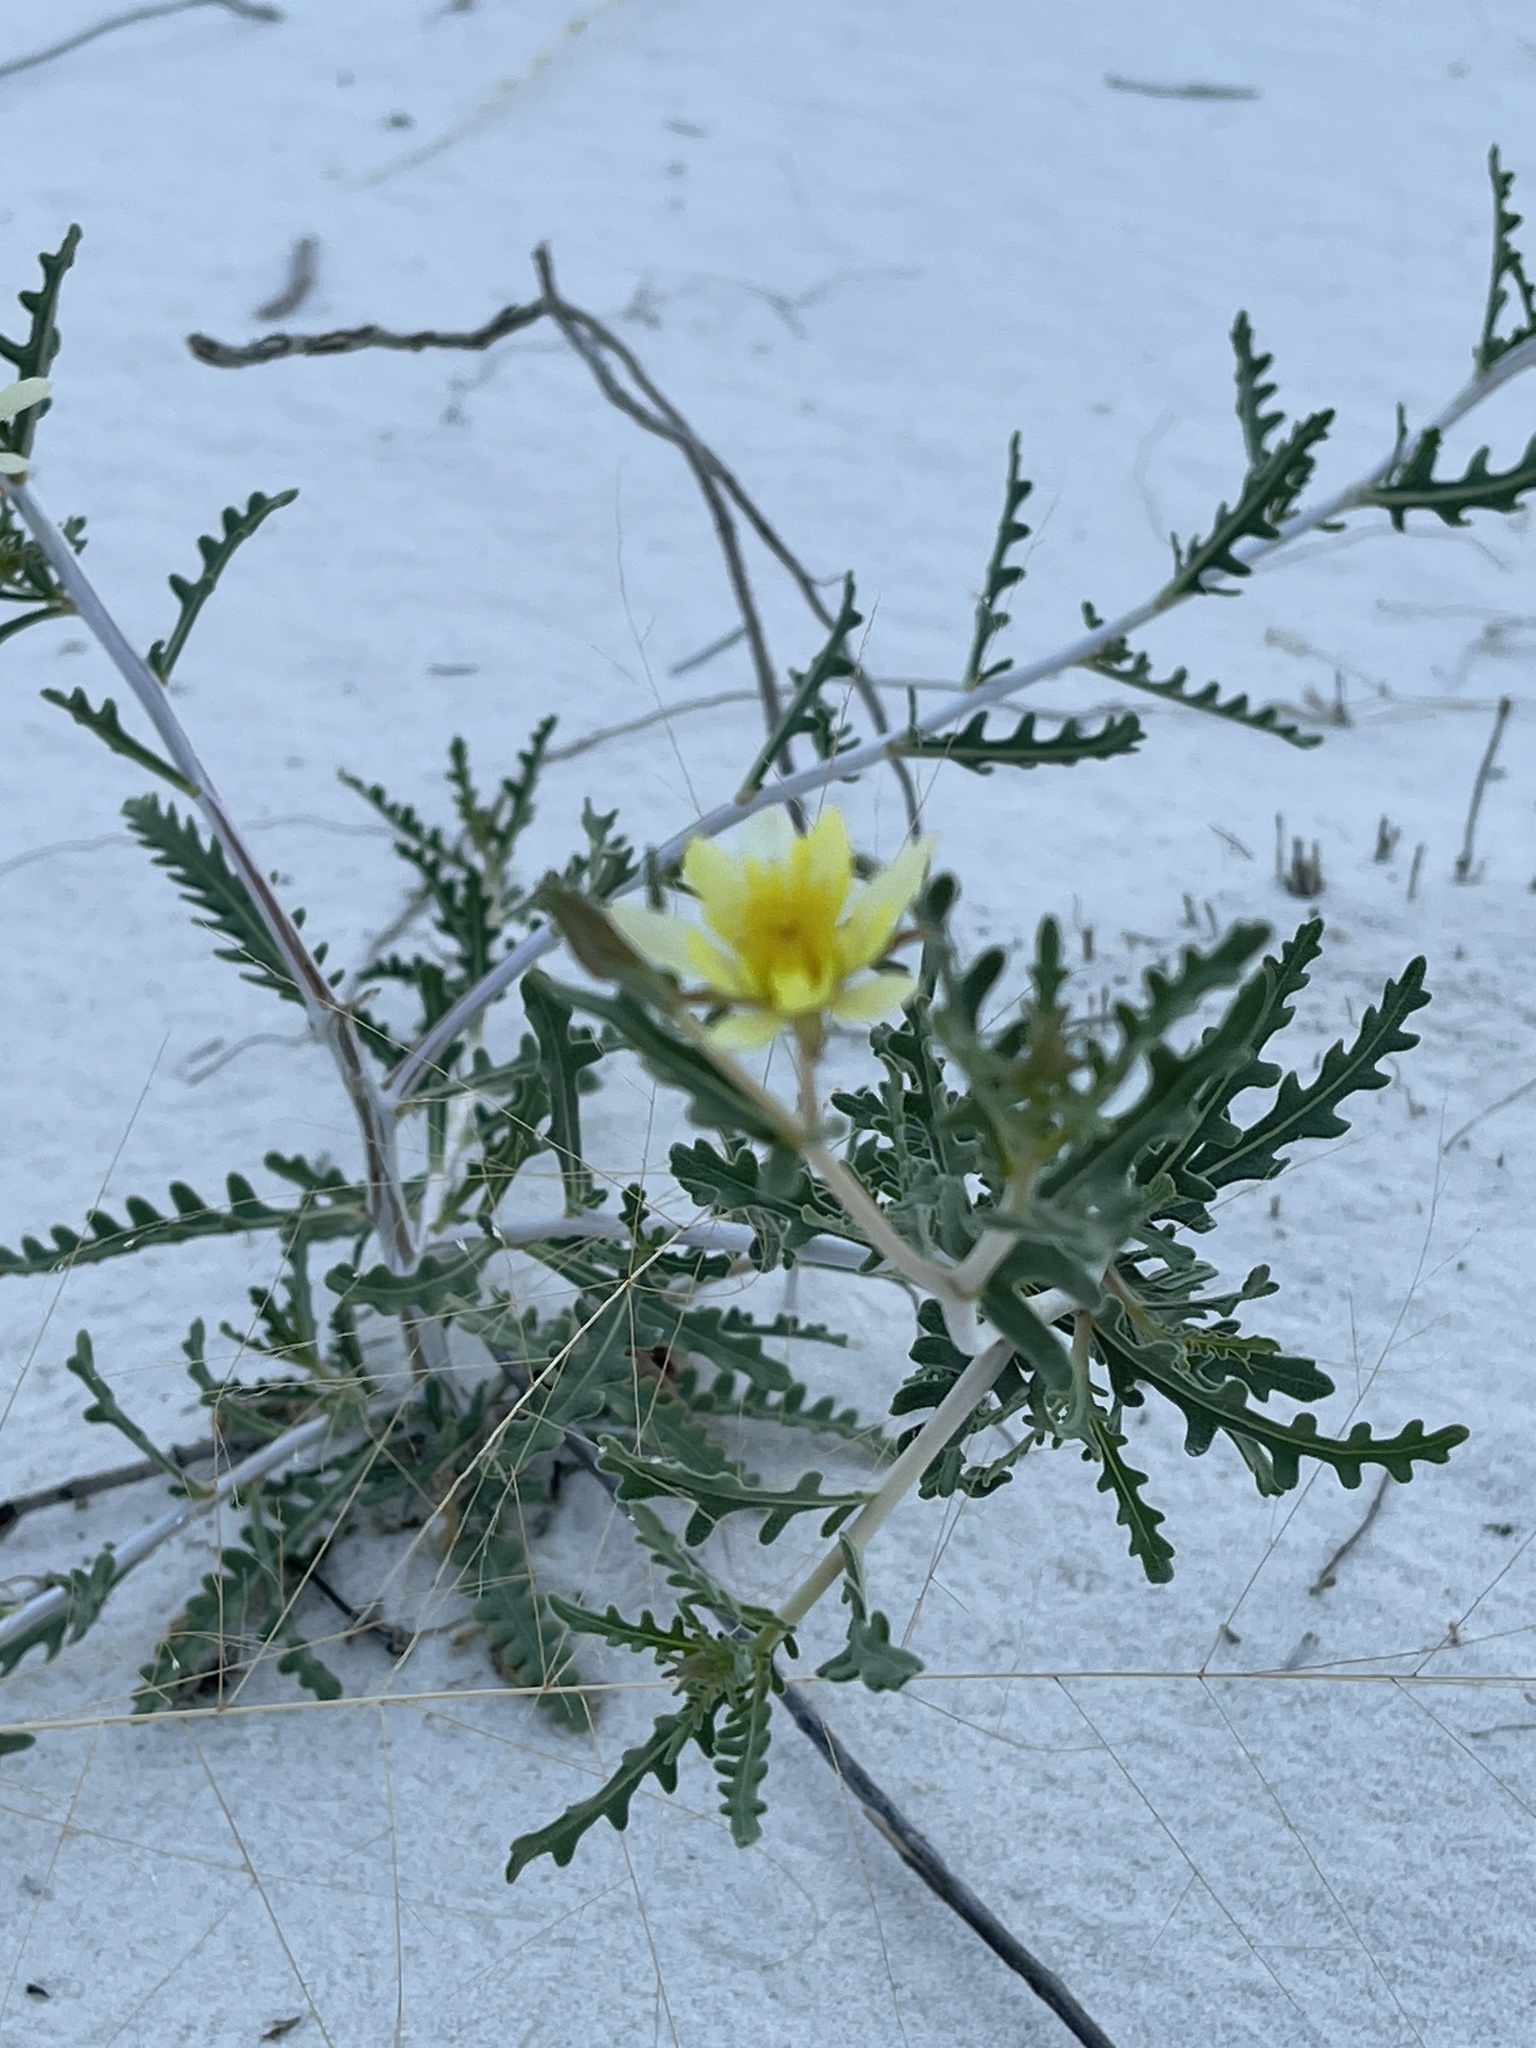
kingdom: Plantae
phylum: Tracheophyta
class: Magnoliopsida
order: Cornales
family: Loasaceae
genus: Mentzelia
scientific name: Mentzelia procera
